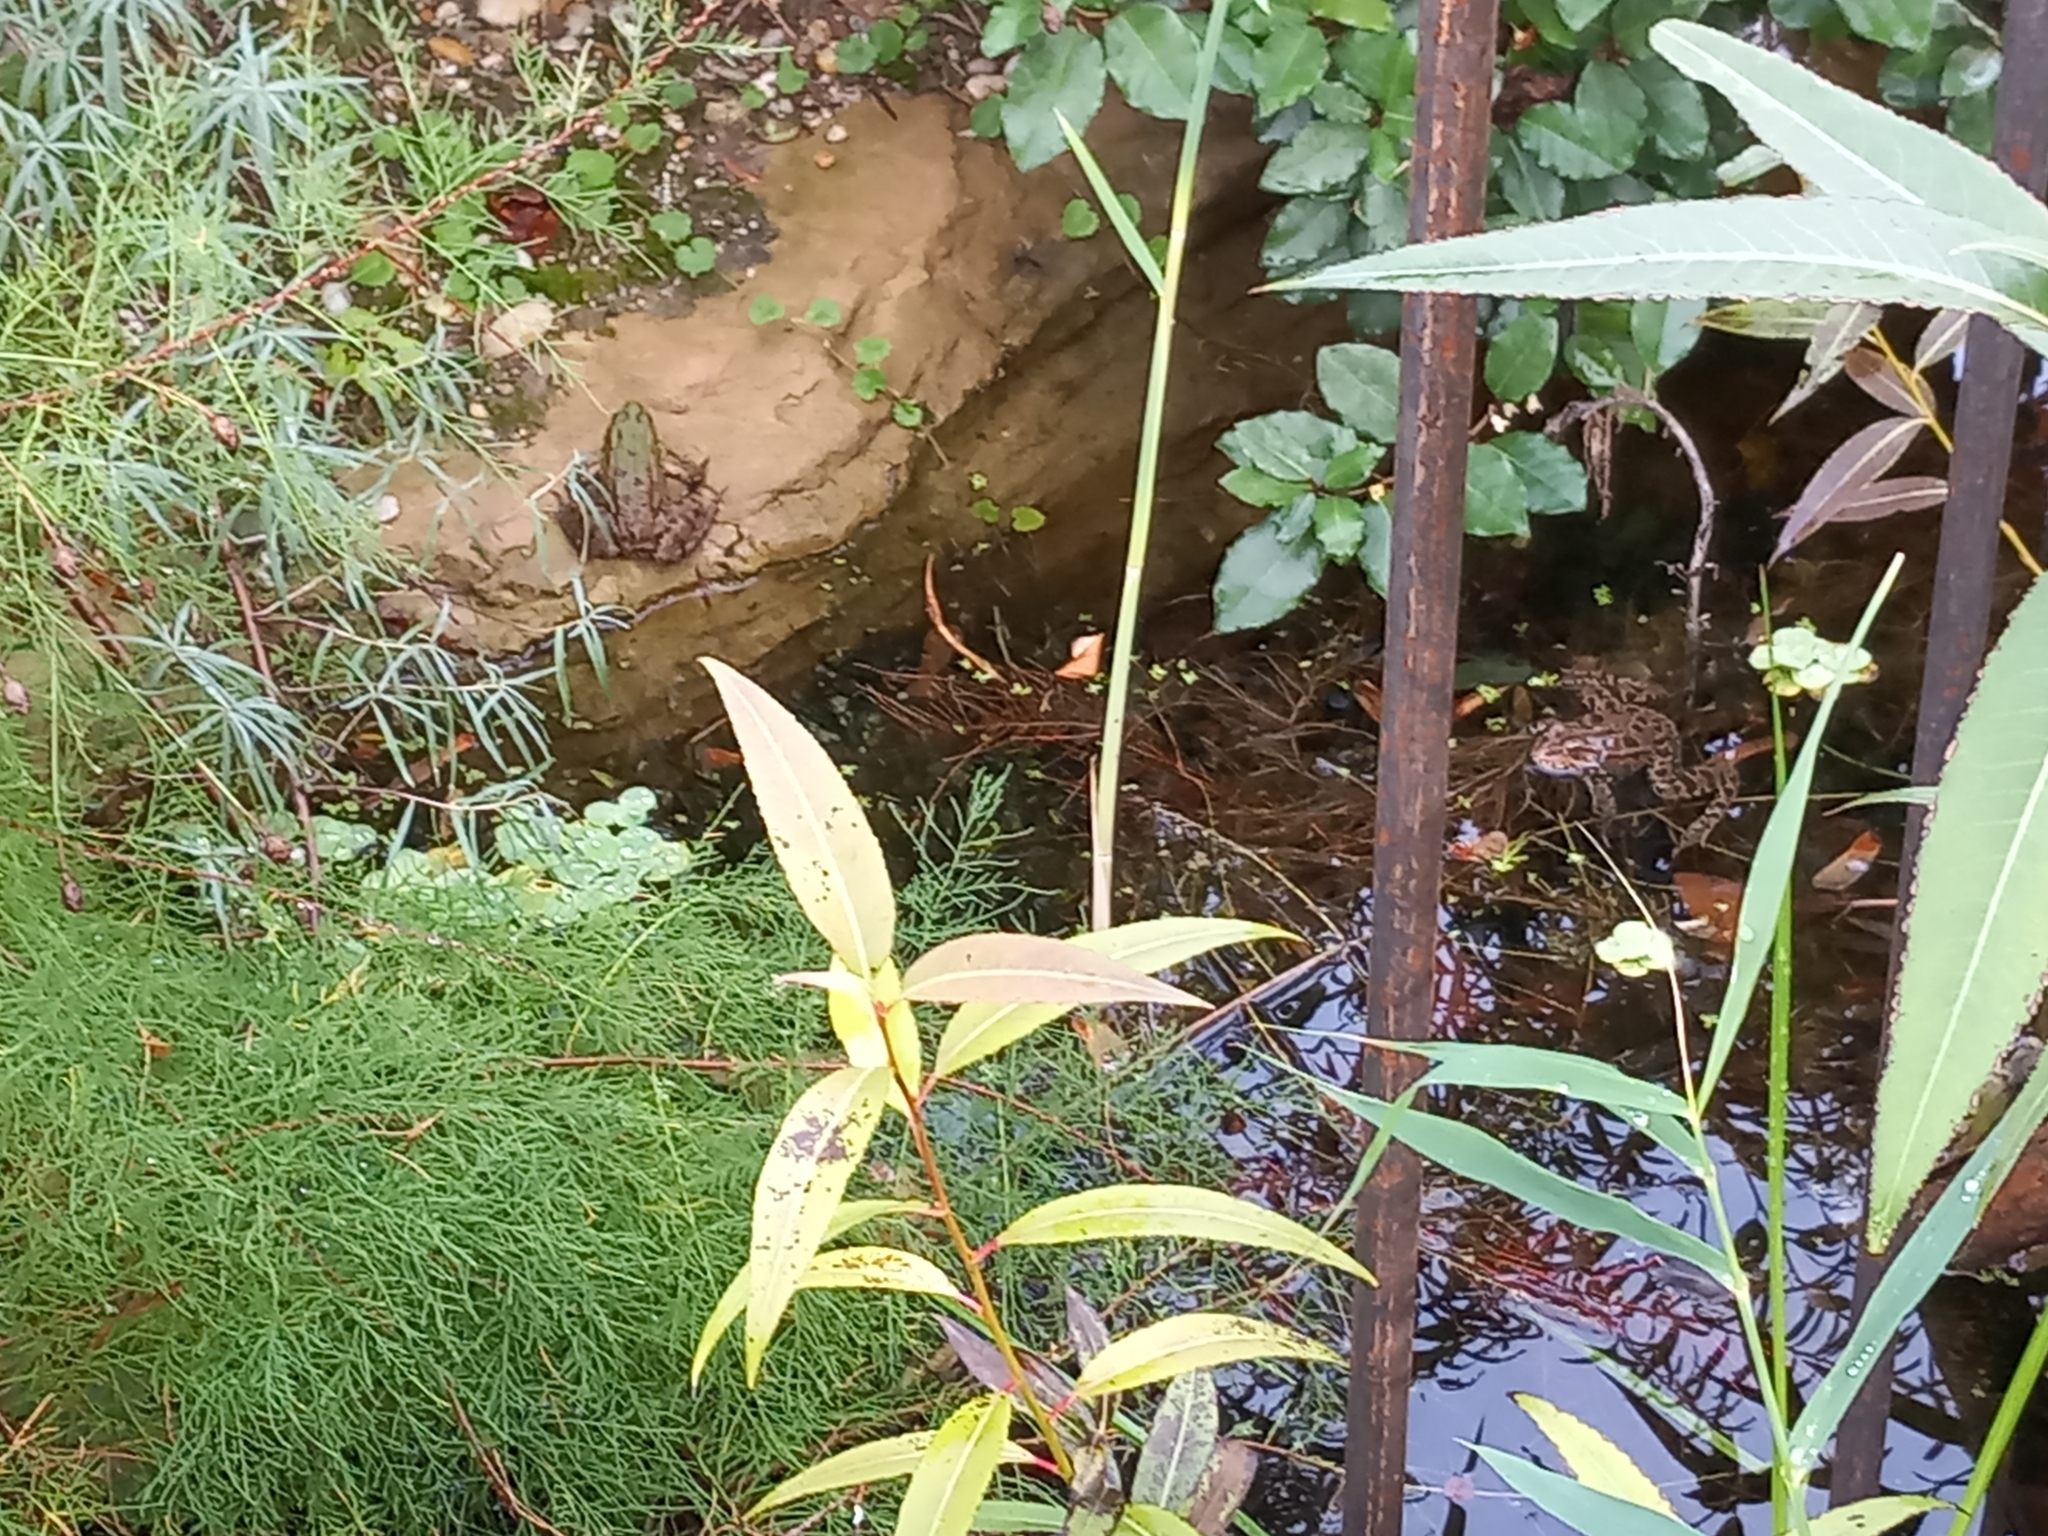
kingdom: Animalia
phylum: Chordata
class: Amphibia
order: Anura
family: Ranidae
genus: Pelophylax
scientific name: Pelophylax
